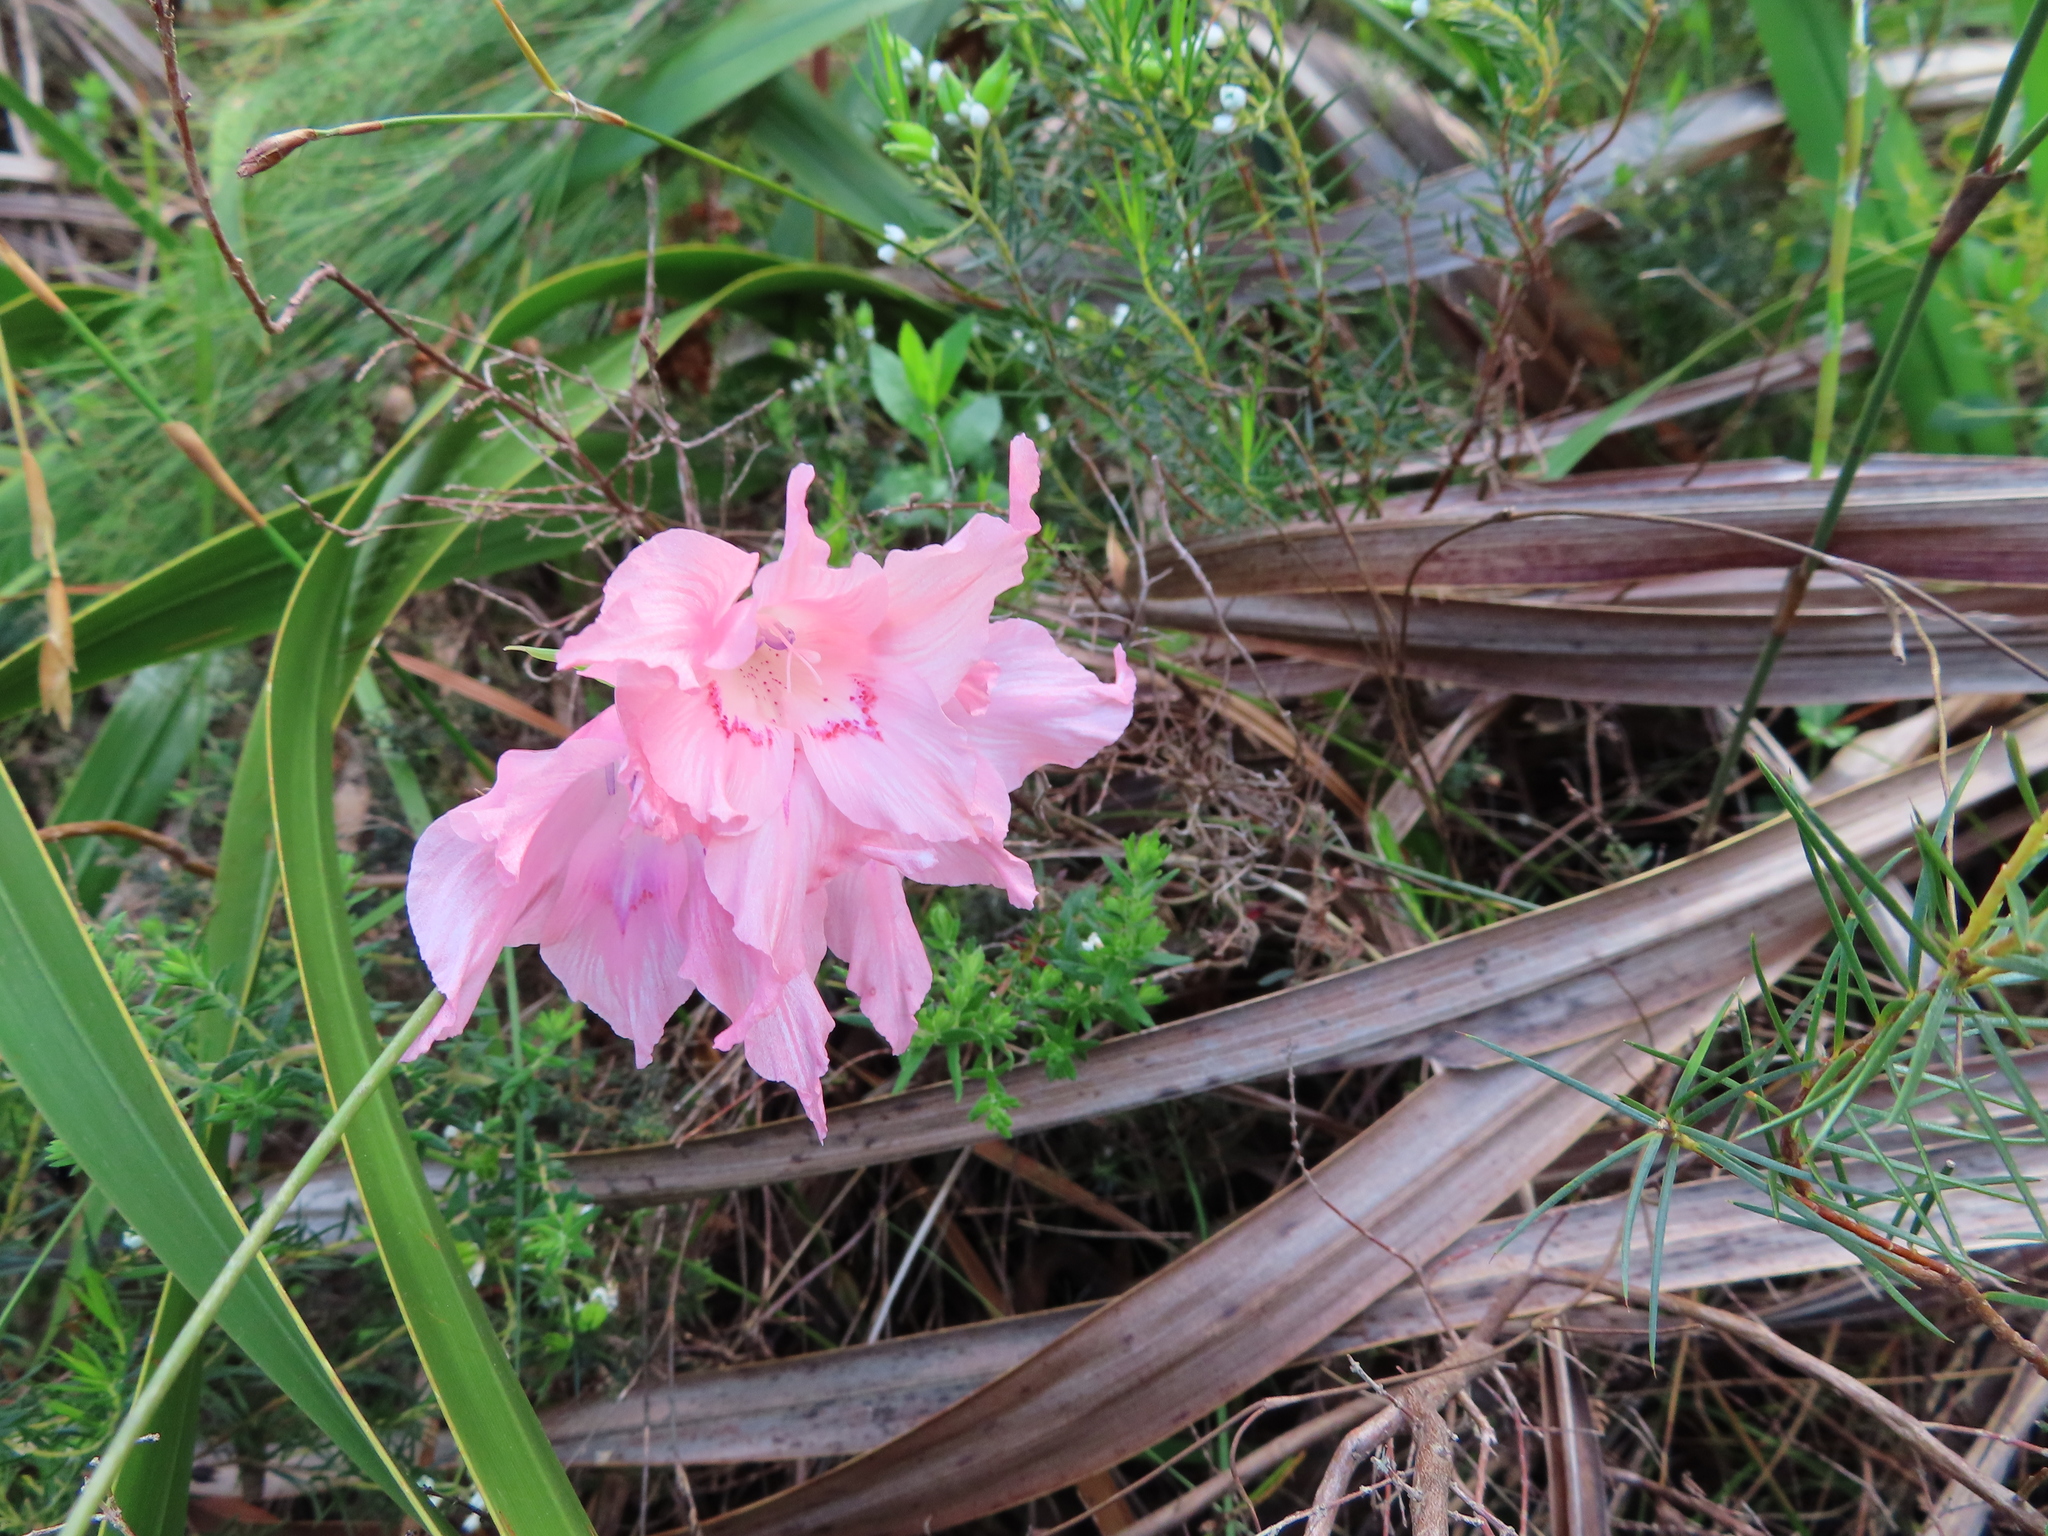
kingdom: Plantae
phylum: Tracheophyta
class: Liliopsida
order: Asparagales
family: Iridaceae
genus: Gladiolus
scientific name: Gladiolus virgatus
